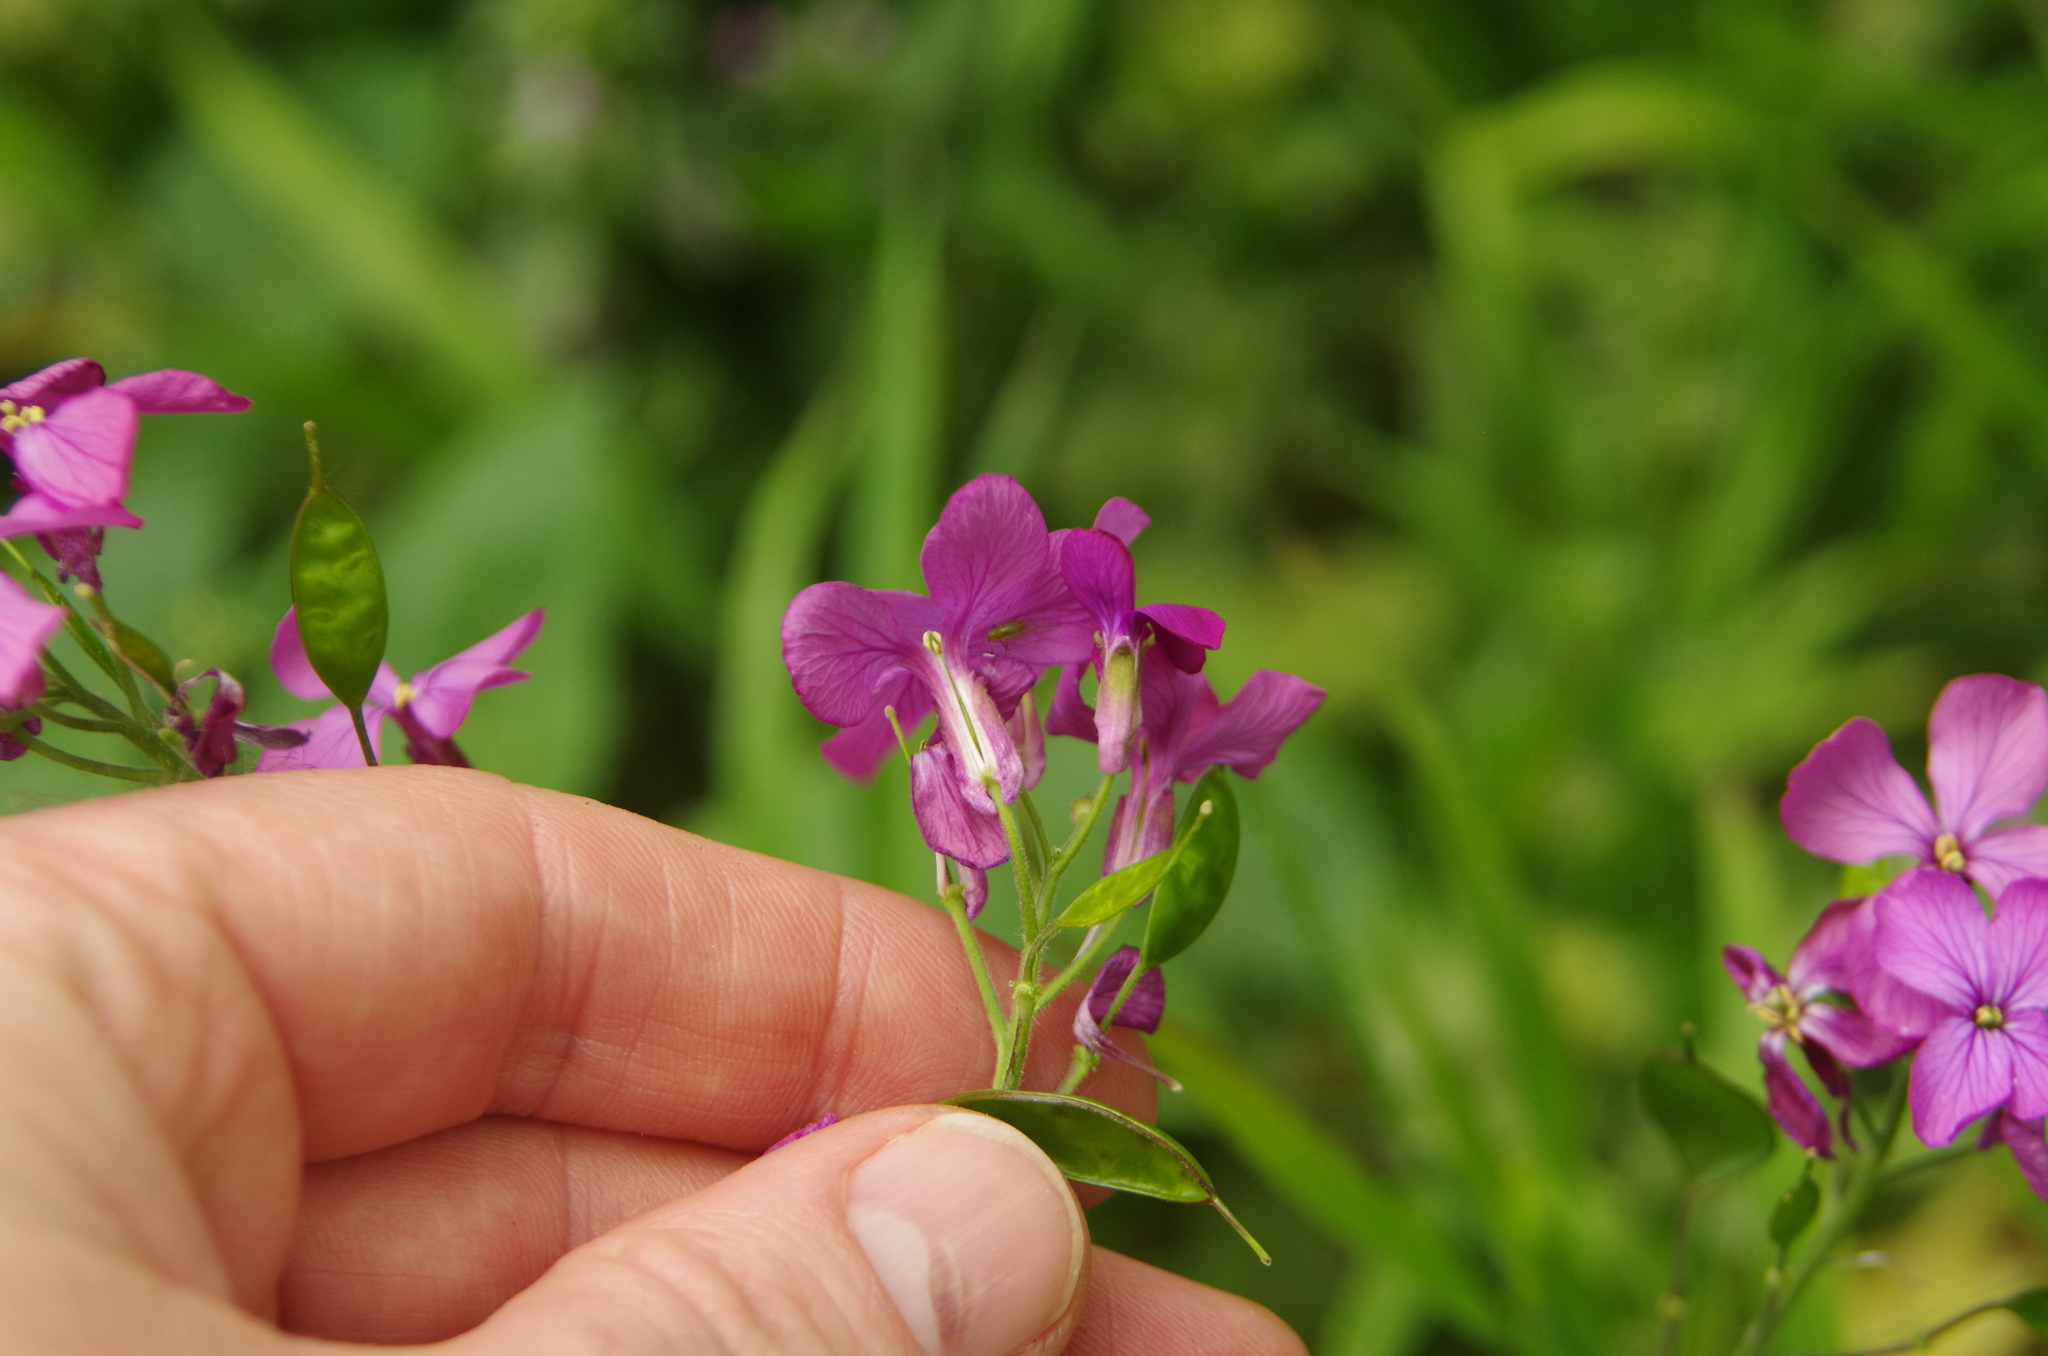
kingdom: Plantae
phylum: Tracheophyta
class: Magnoliopsida
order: Brassicales
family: Brassicaceae
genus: Lunaria
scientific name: Lunaria annua
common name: Honesty
